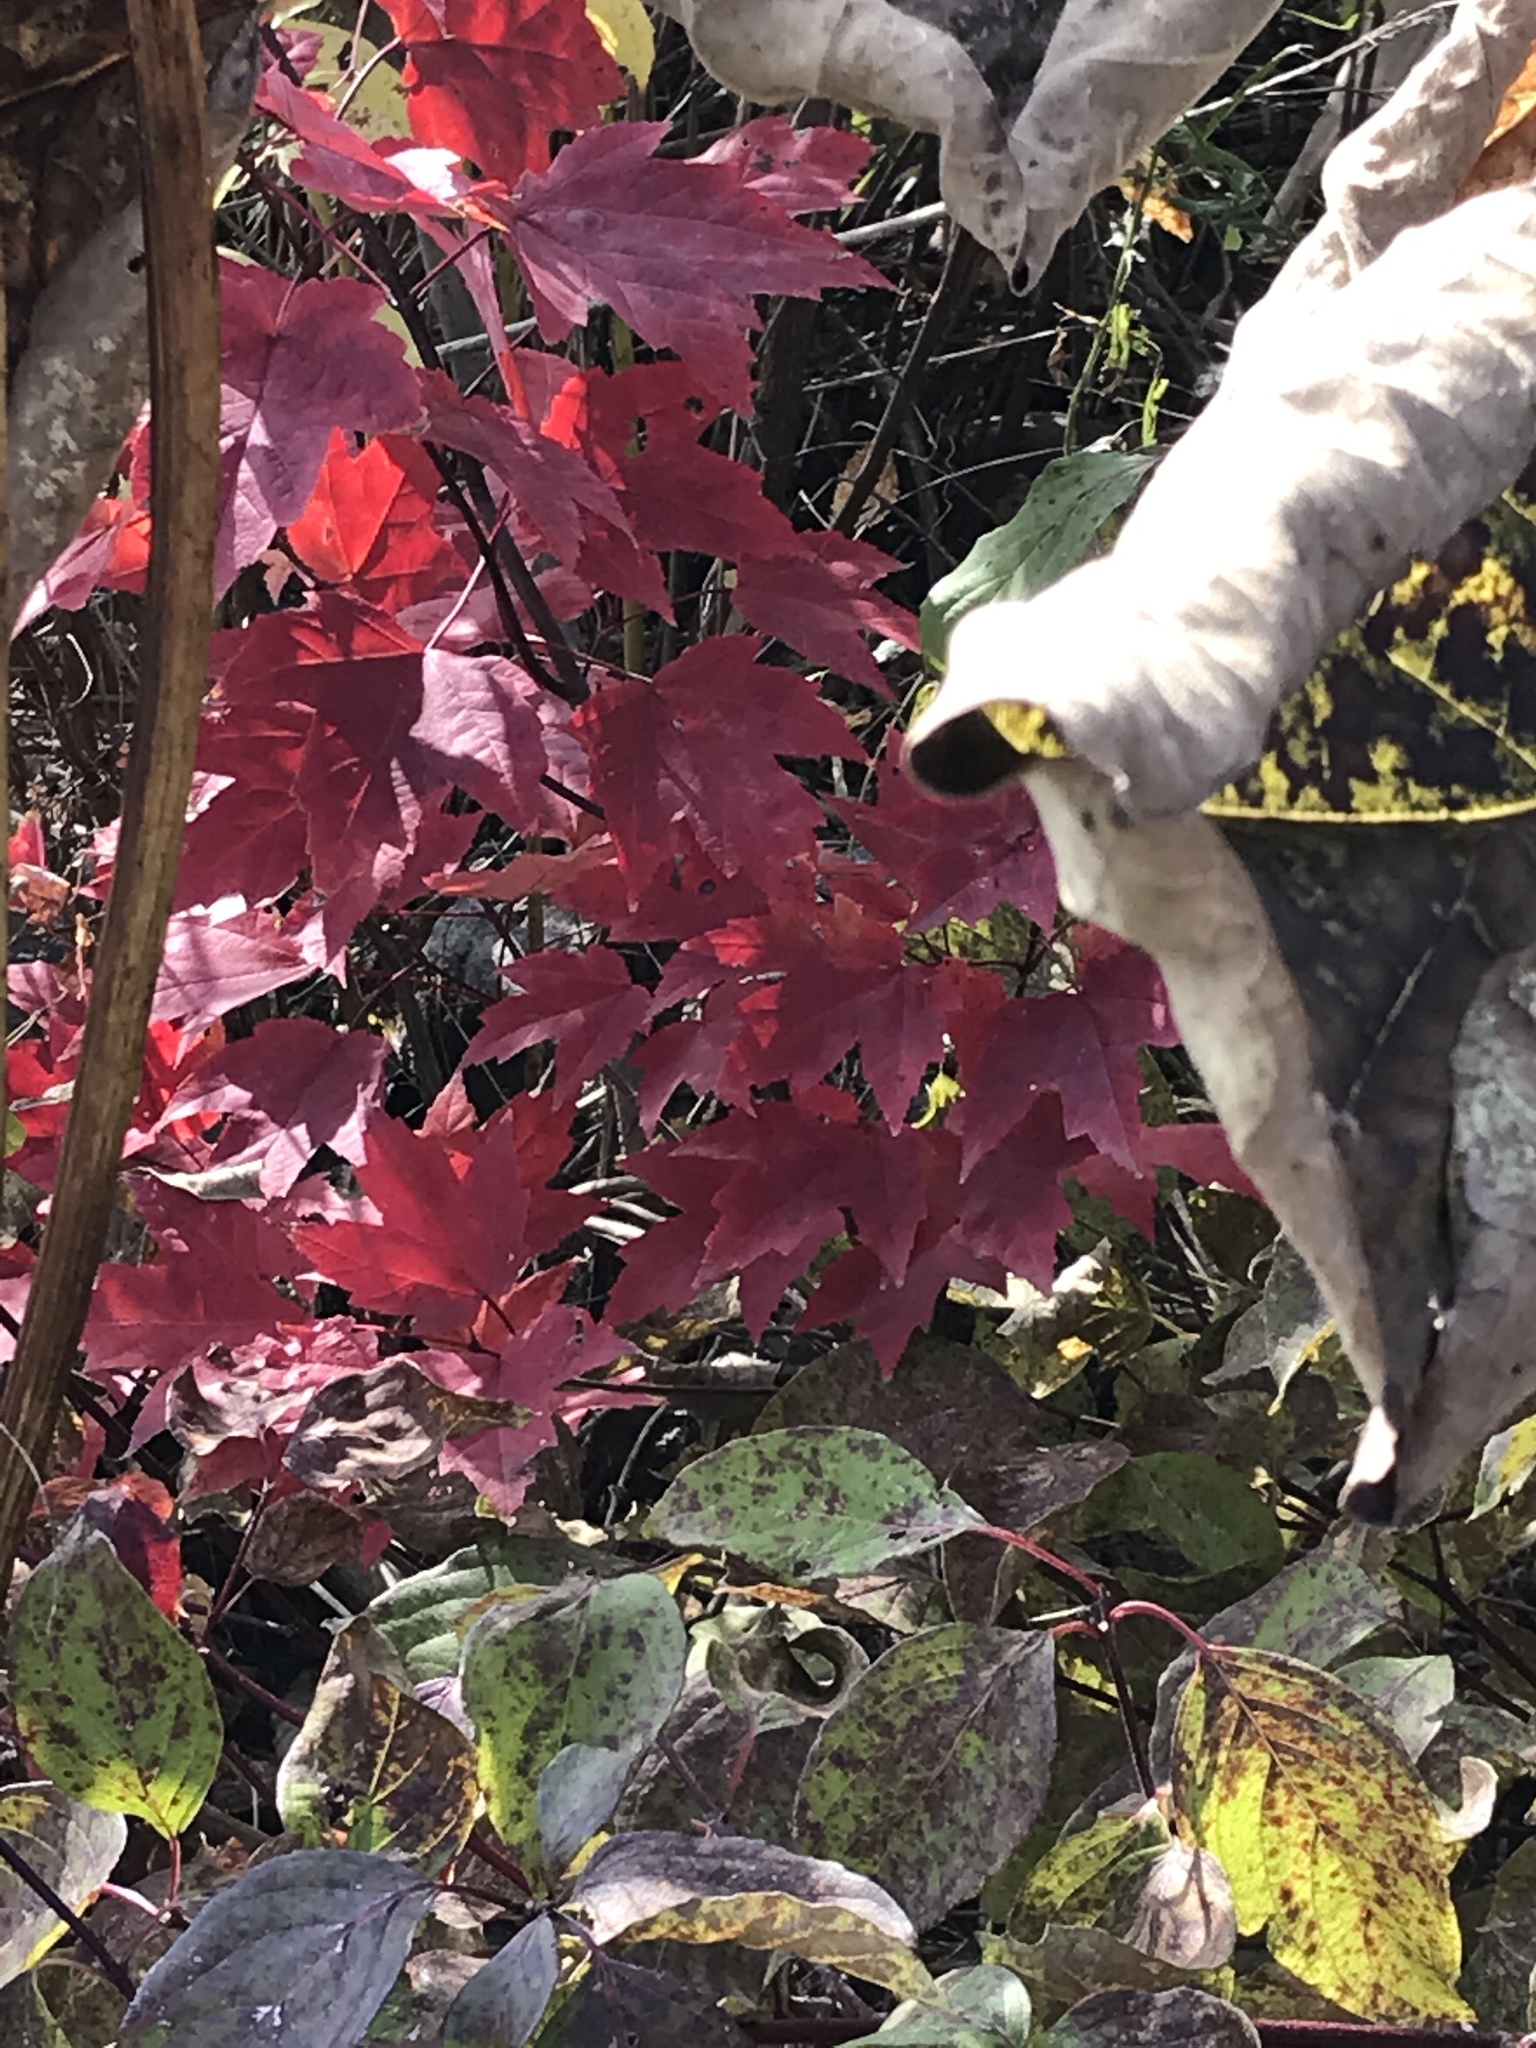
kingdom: Plantae
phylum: Tracheophyta
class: Magnoliopsida
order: Sapindales
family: Sapindaceae
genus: Acer
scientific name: Acer rubrum
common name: Red maple
